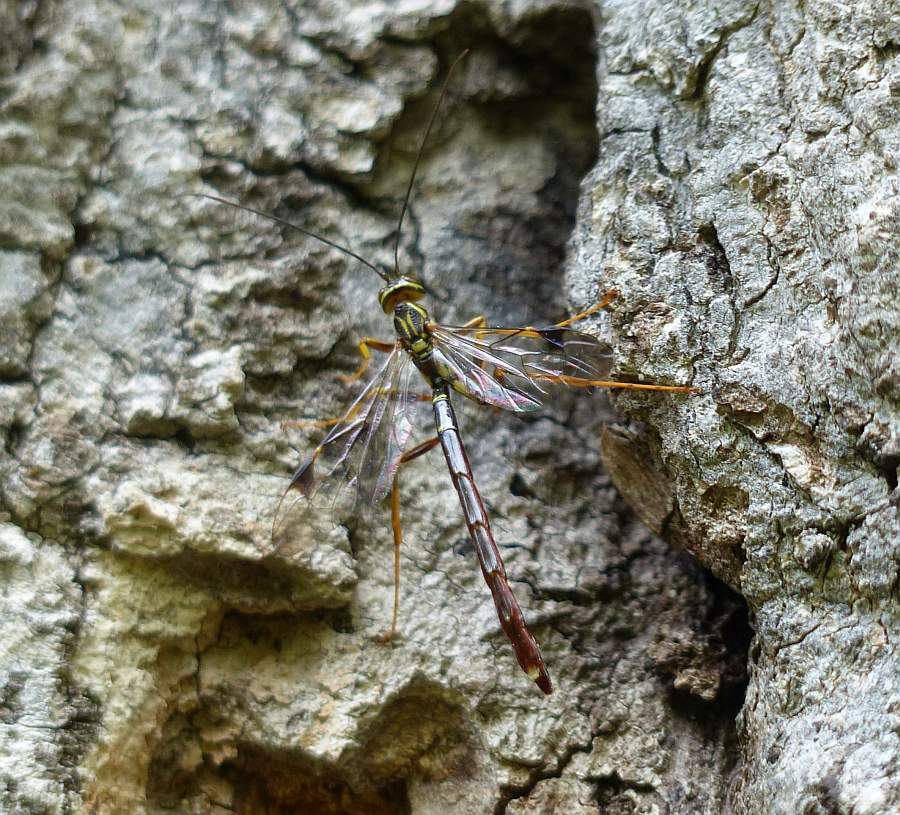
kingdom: Animalia
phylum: Arthropoda
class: Insecta
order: Hymenoptera
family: Ichneumonidae
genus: Megarhyssa
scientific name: Megarhyssa macrura
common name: Long-tailed giant ichneumonid wasp
